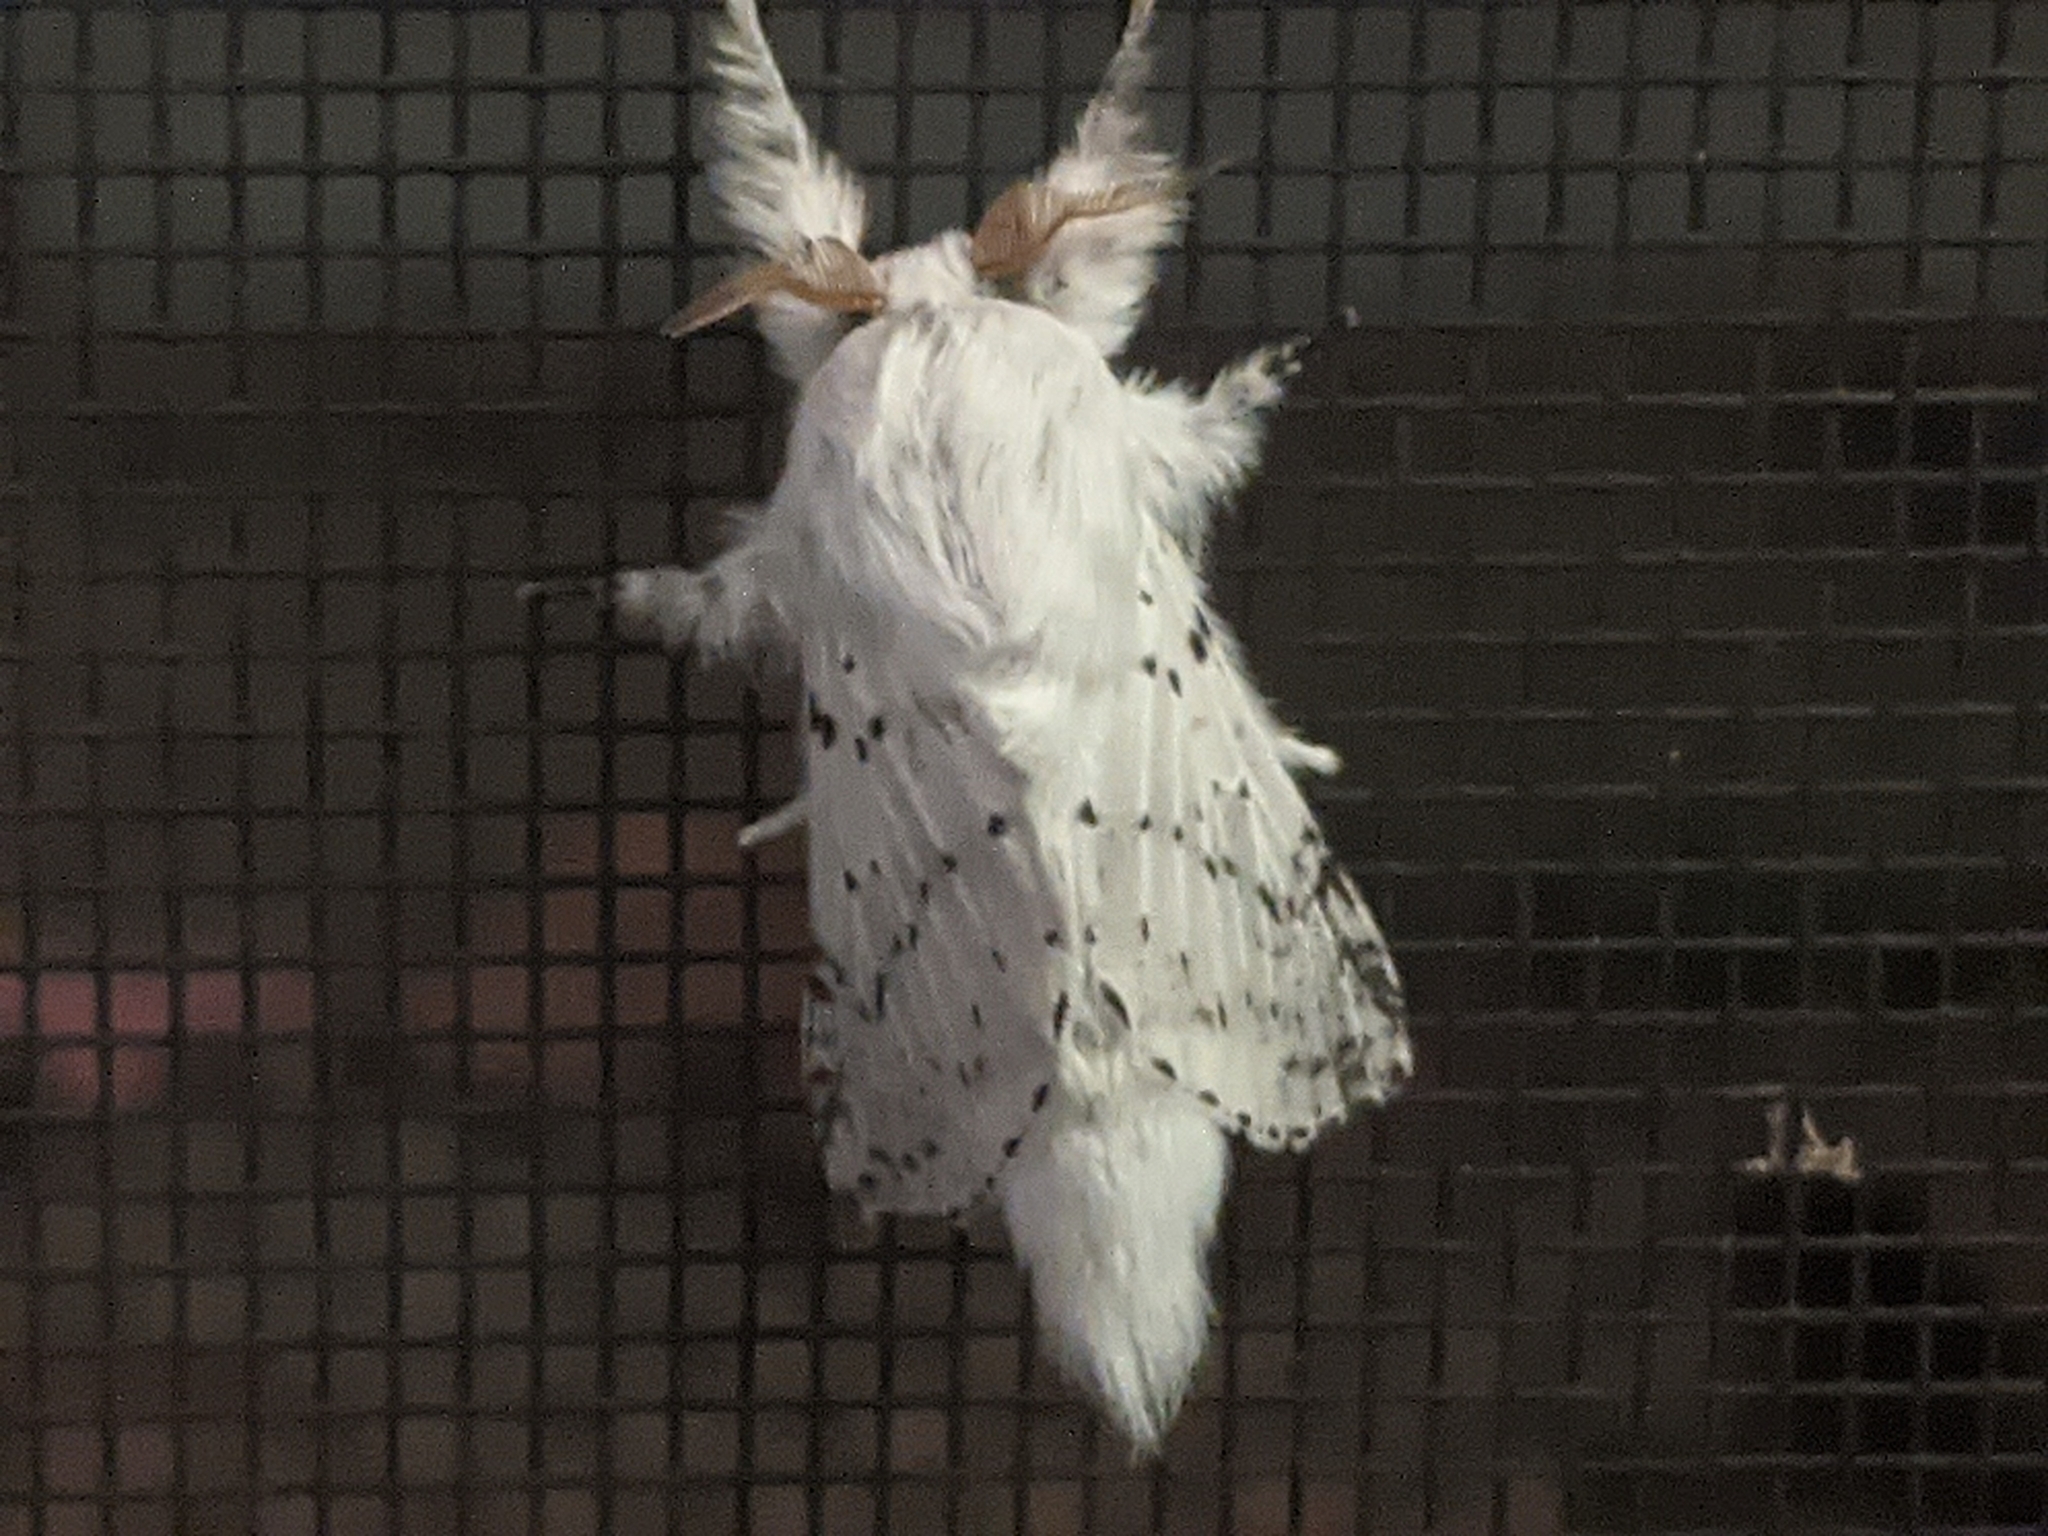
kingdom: Animalia
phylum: Arthropoda
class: Insecta
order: Lepidoptera
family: Lasiocampidae
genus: Artace
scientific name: Artace cribrarius
